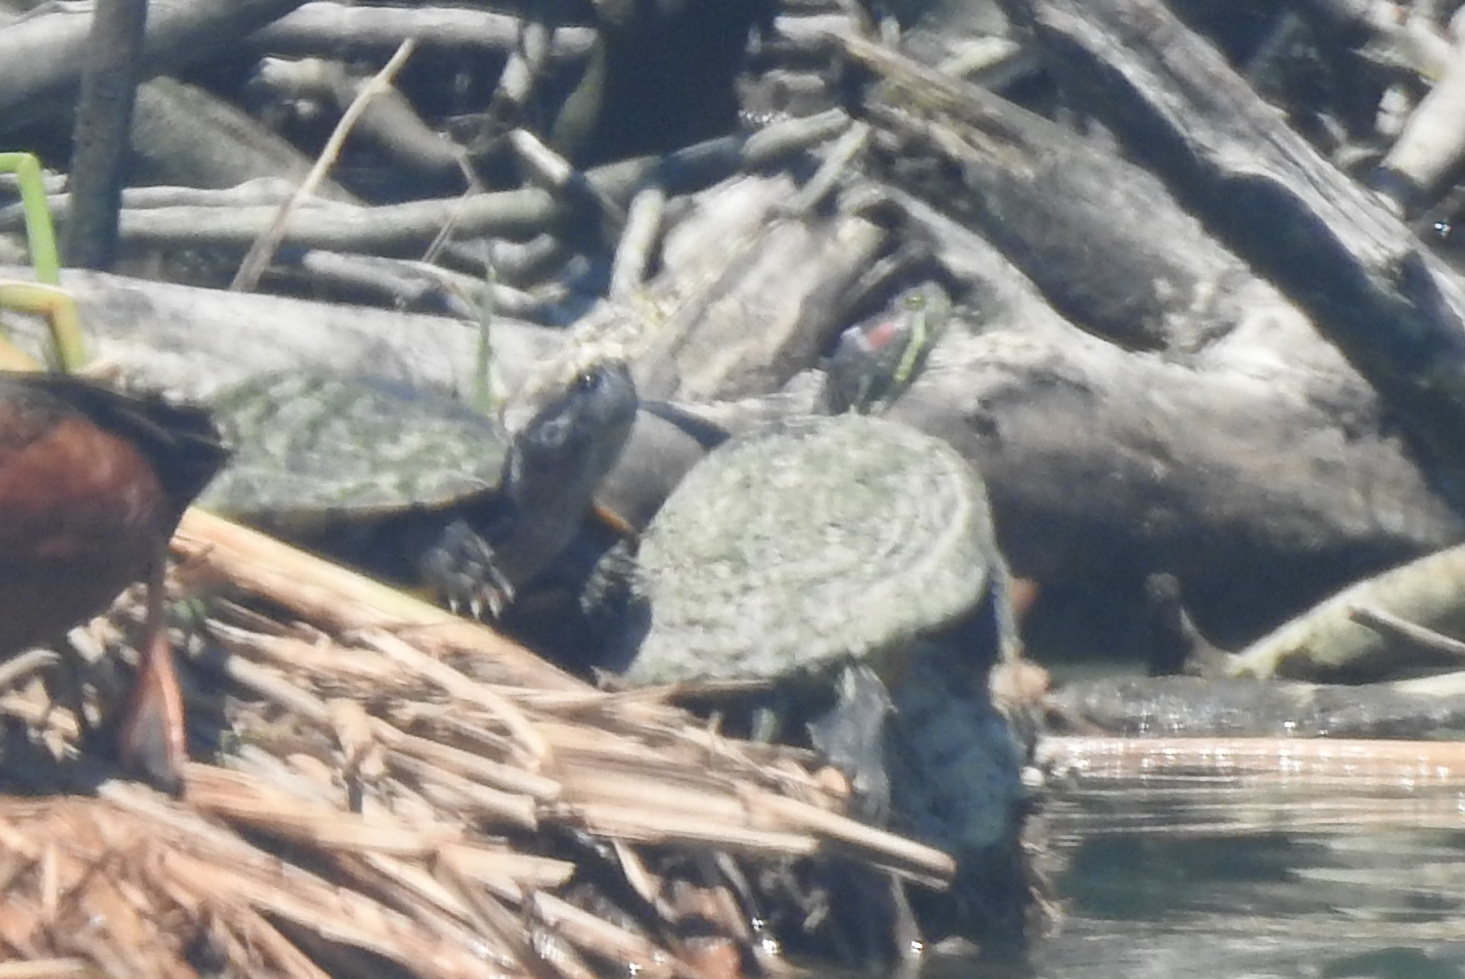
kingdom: Animalia
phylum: Chordata
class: Testudines
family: Emydidae
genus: Trachemys
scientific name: Trachemys scripta
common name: Slider
